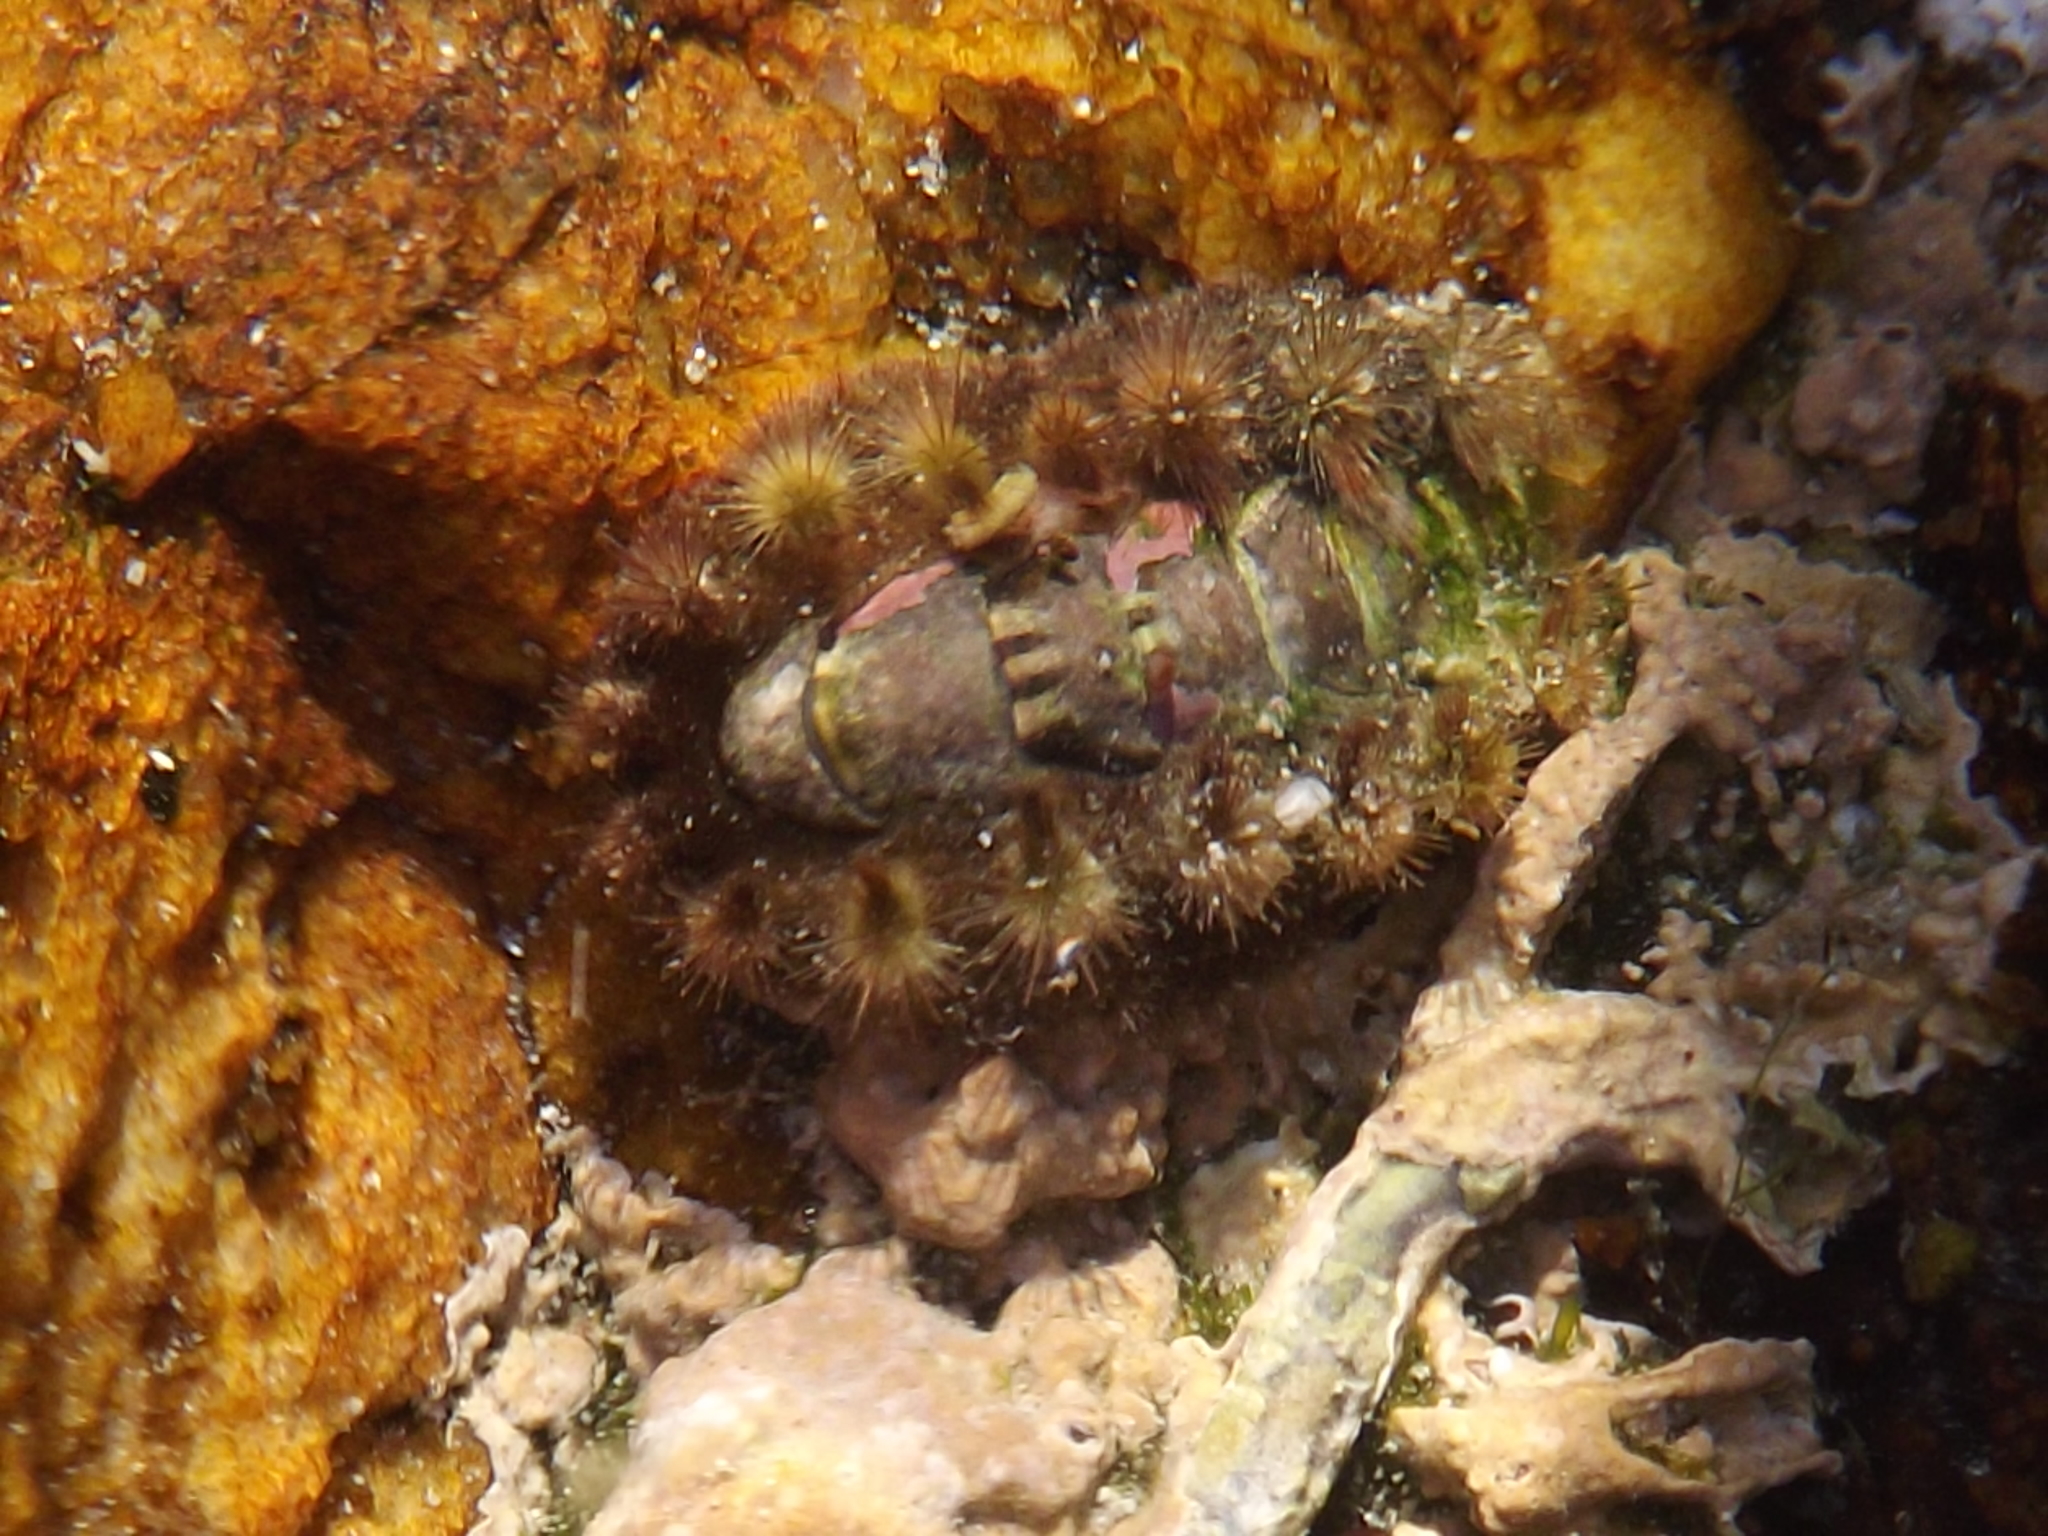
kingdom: Animalia
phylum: Mollusca
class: Polyplacophora
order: Chitonida
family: Acanthochitonidae
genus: Acanthochitona
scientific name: Acanthochitona garnoti
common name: Spiny chiton
